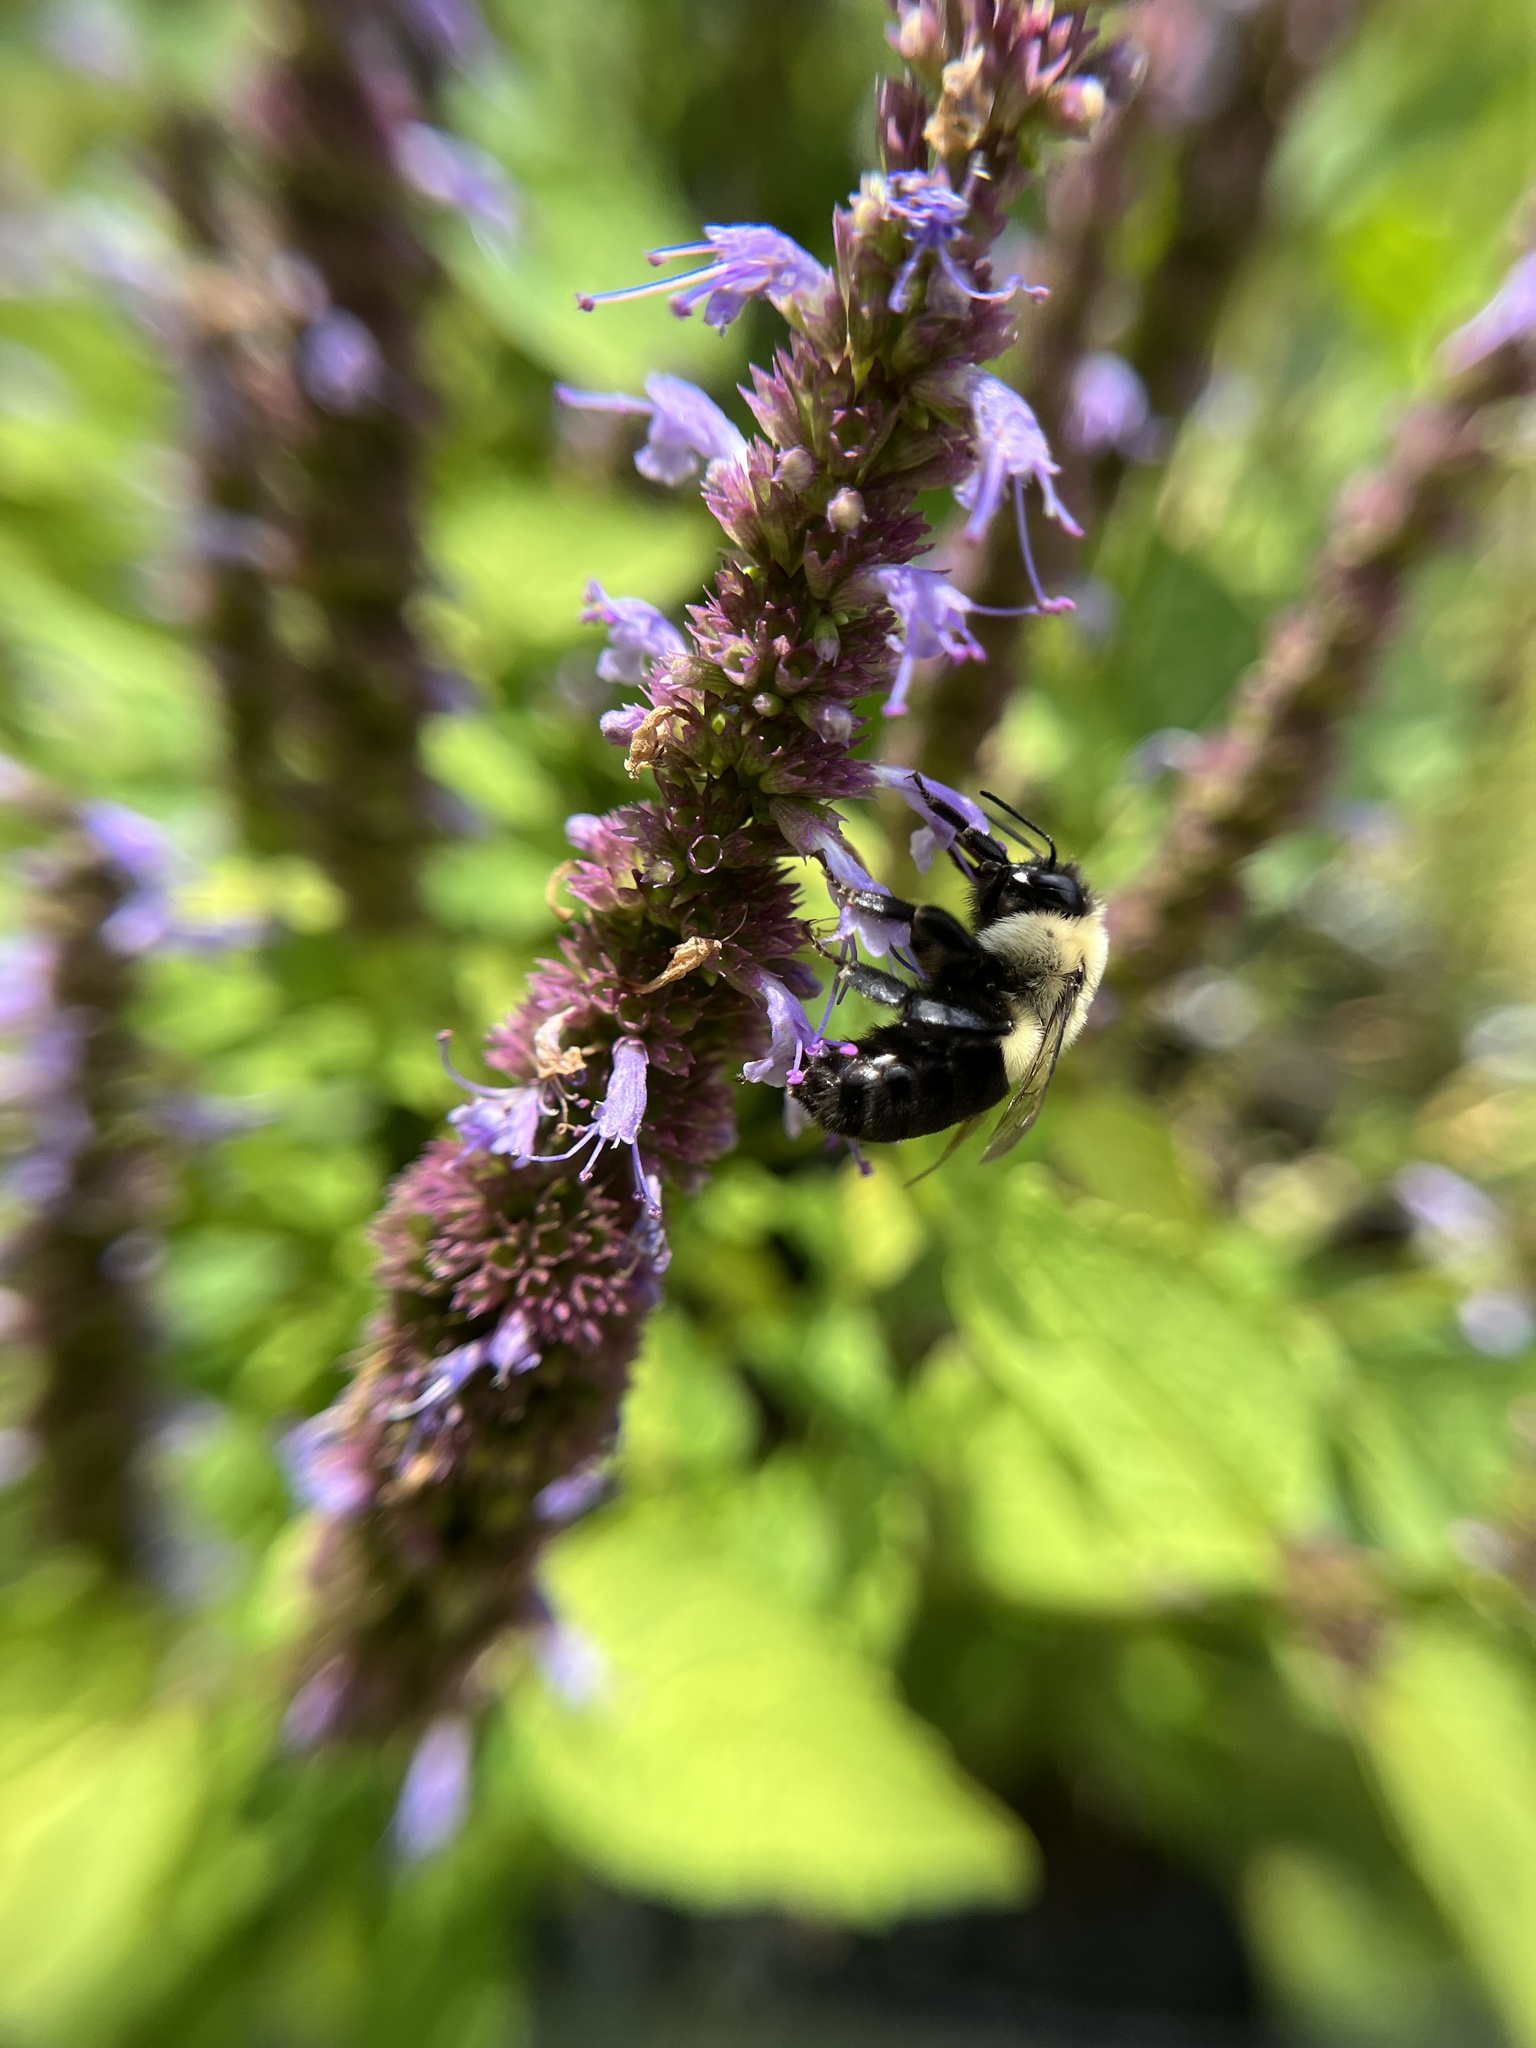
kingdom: Animalia
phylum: Arthropoda
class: Insecta
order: Hymenoptera
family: Apidae
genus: Bombus
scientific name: Bombus impatiens
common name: Common eastern bumble bee
